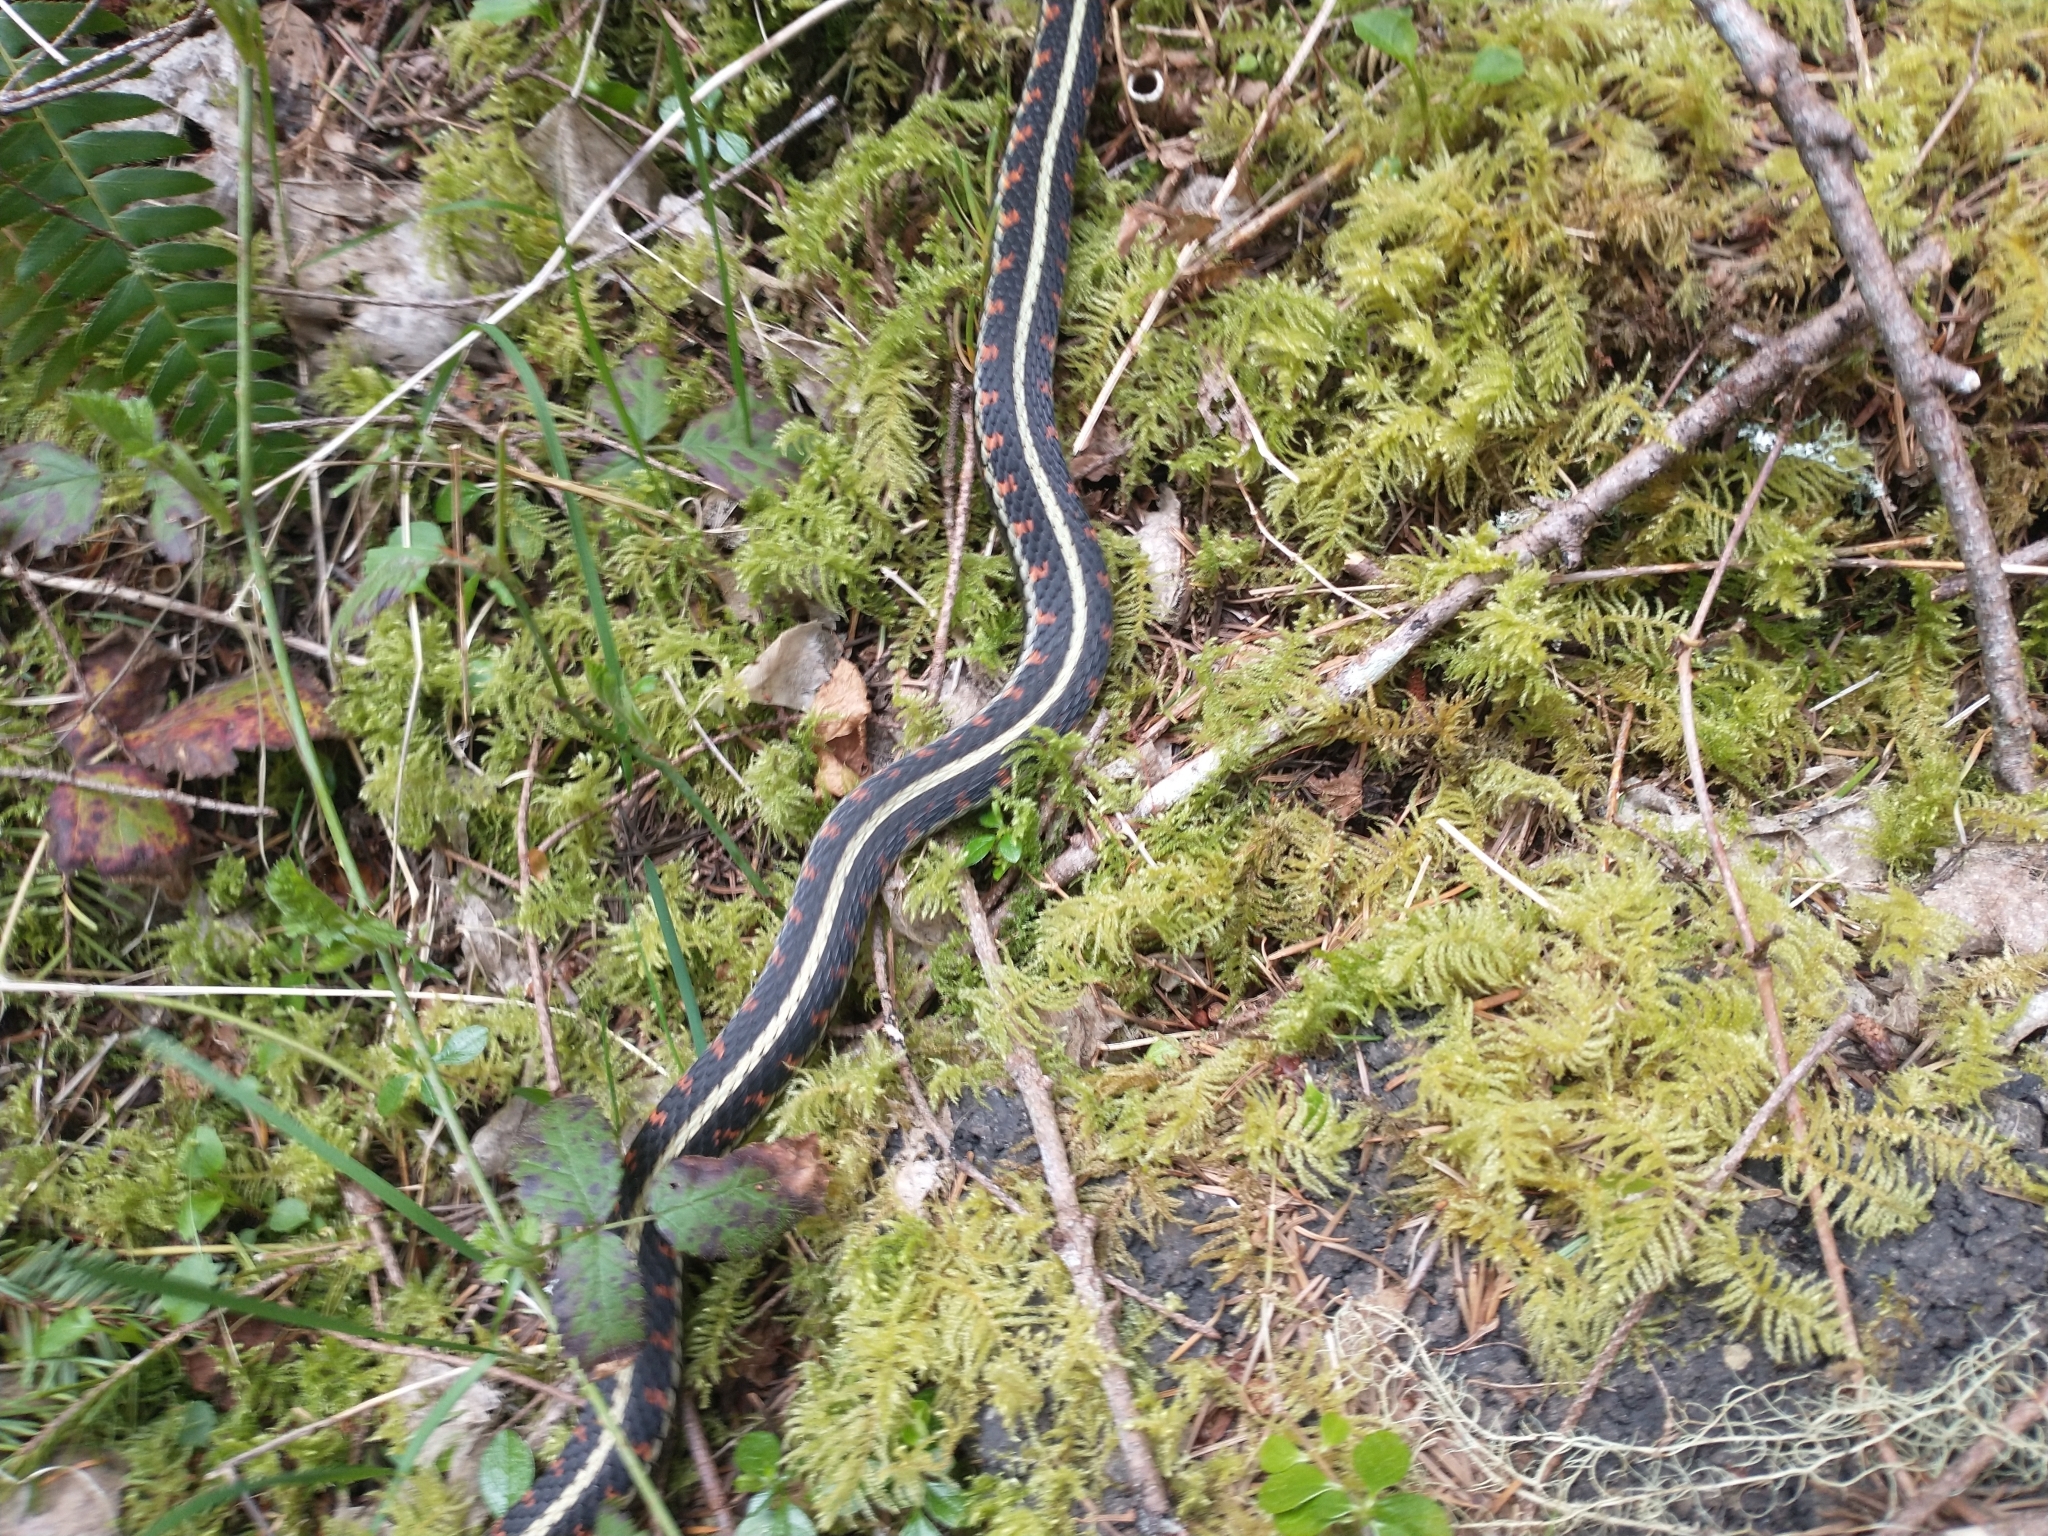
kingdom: Animalia
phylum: Chordata
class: Squamata
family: Colubridae
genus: Thamnophis
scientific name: Thamnophis sirtalis
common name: Common garter snake
